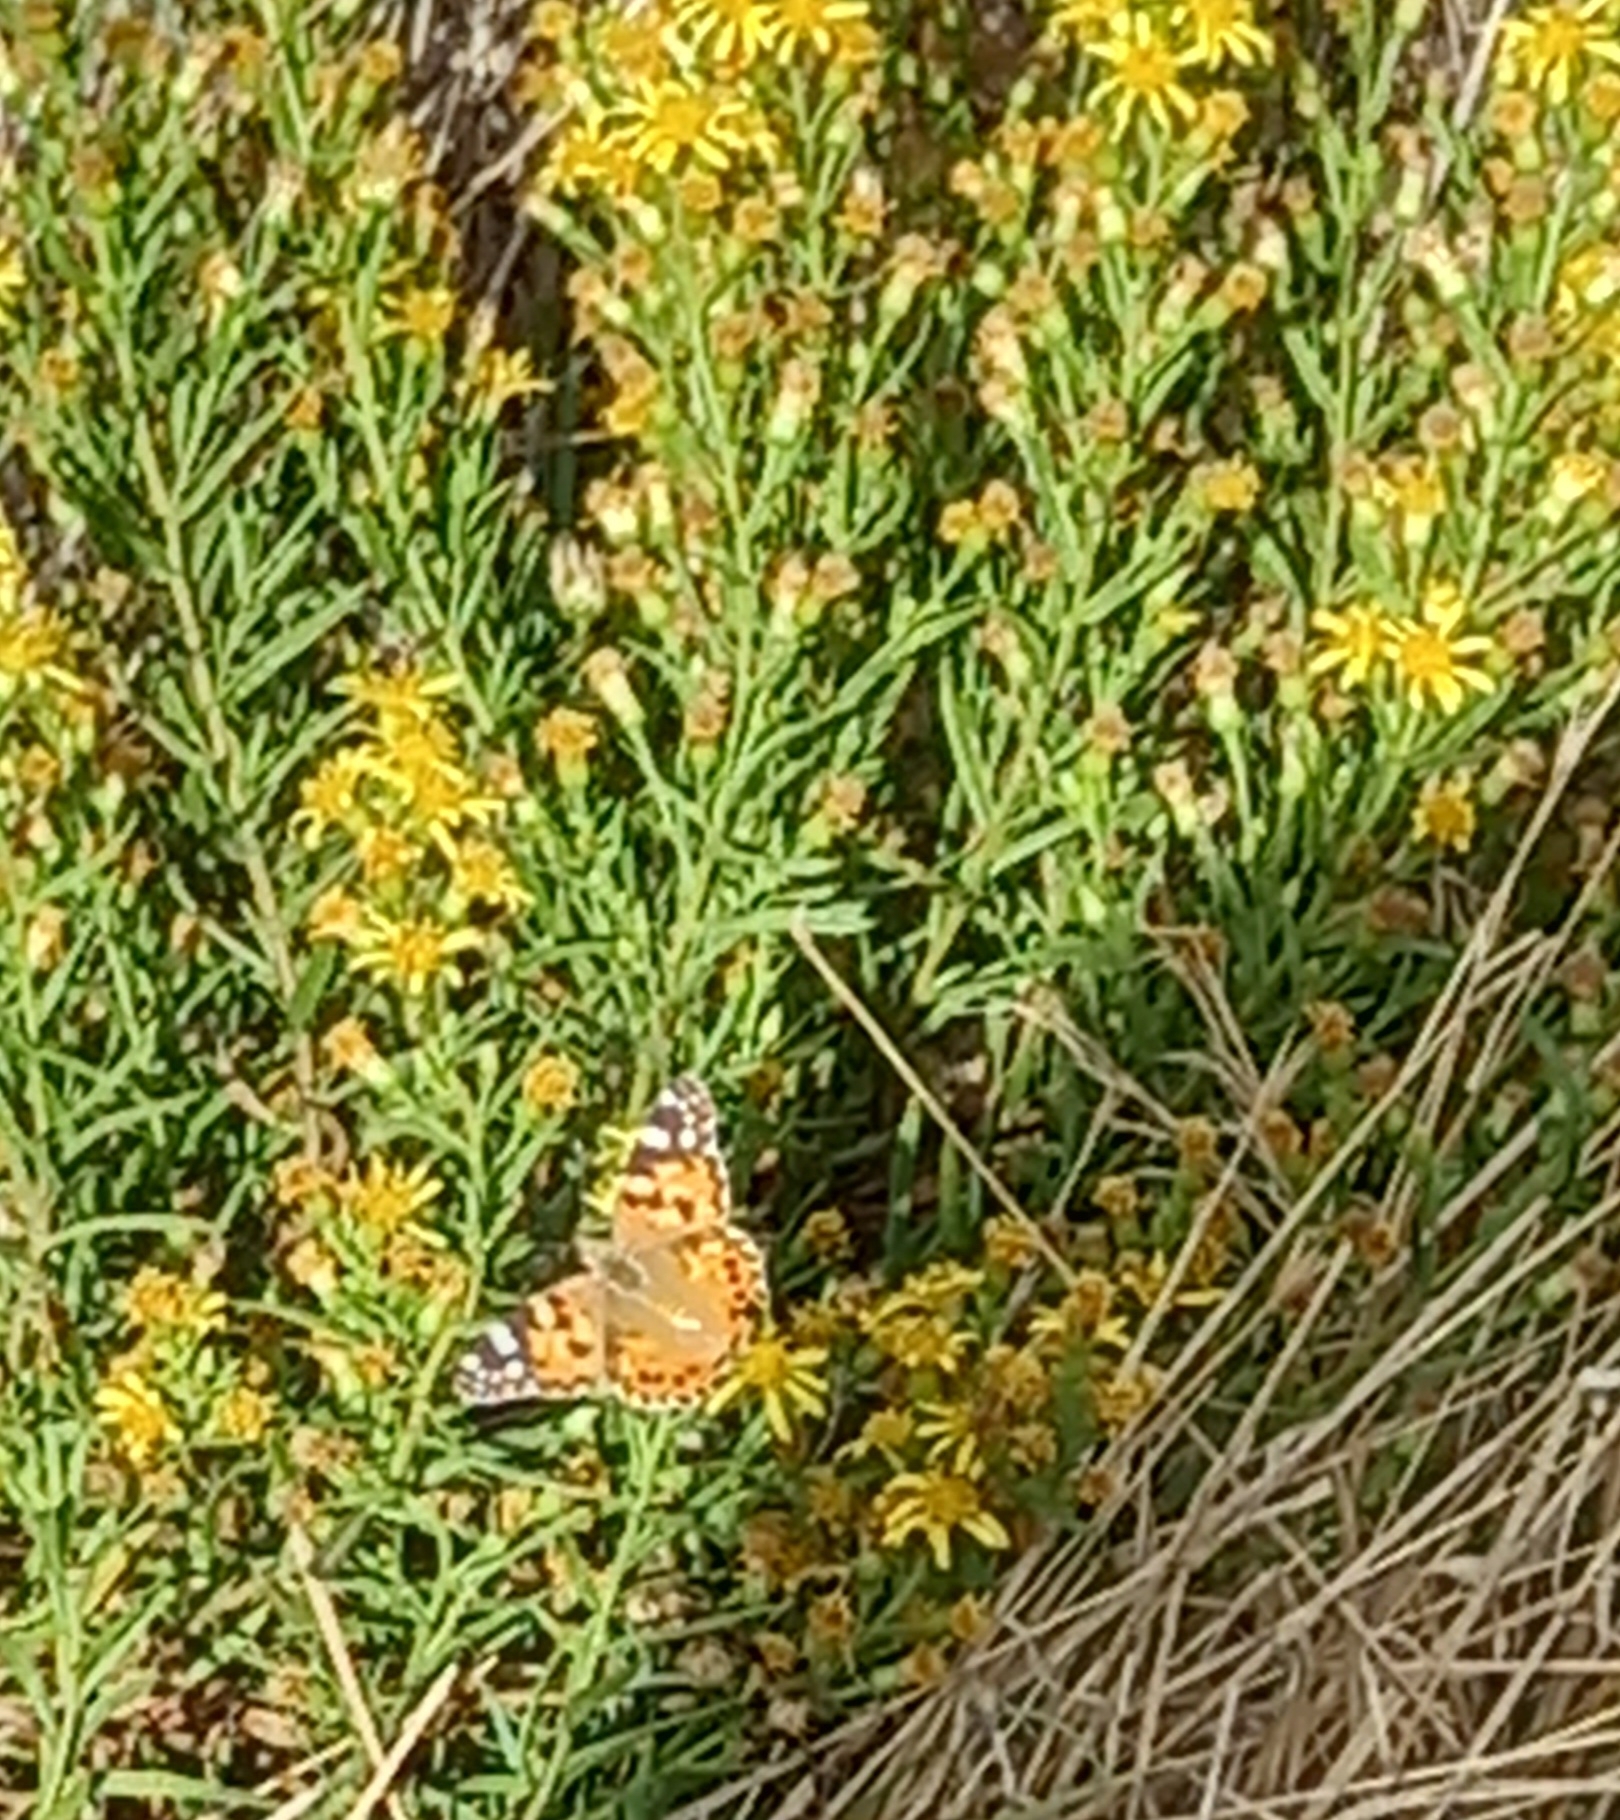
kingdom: Animalia
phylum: Arthropoda
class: Insecta
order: Lepidoptera
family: Nymphalidae
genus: Vanessa
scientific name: Vanessa cardui
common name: Painted lady
